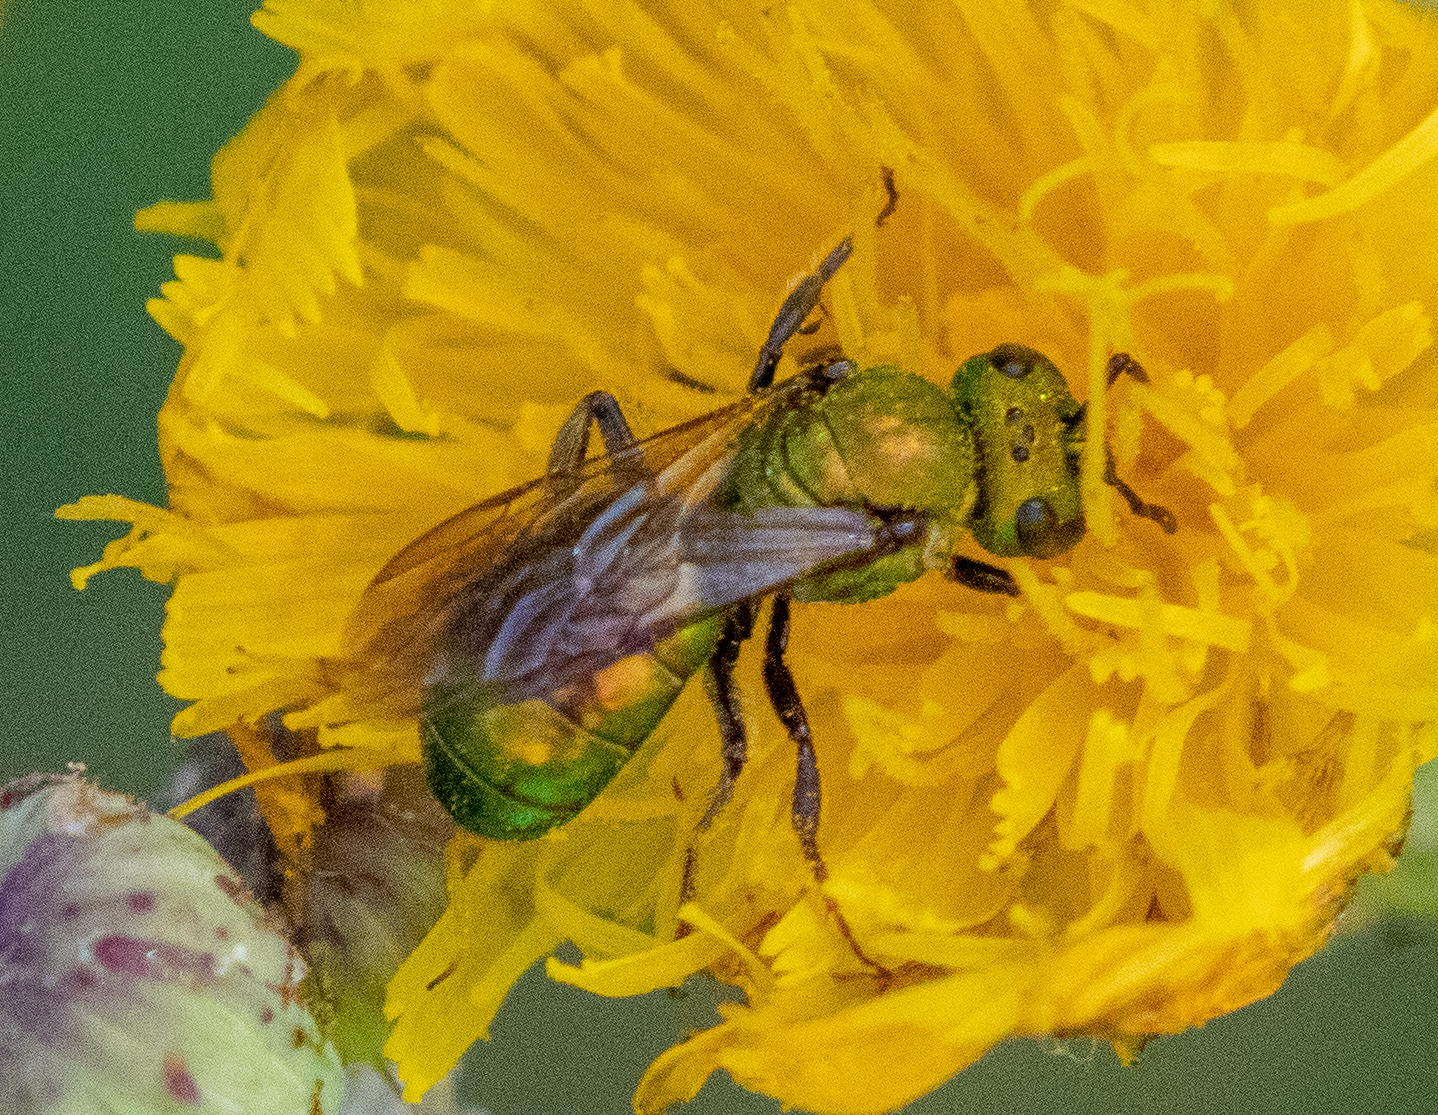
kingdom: Animalia
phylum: Arthropoda
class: Insecta
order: Hymenoptera
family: Halictidae
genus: Augochlora
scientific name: Augochlora pura
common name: Pure green sweat bee
